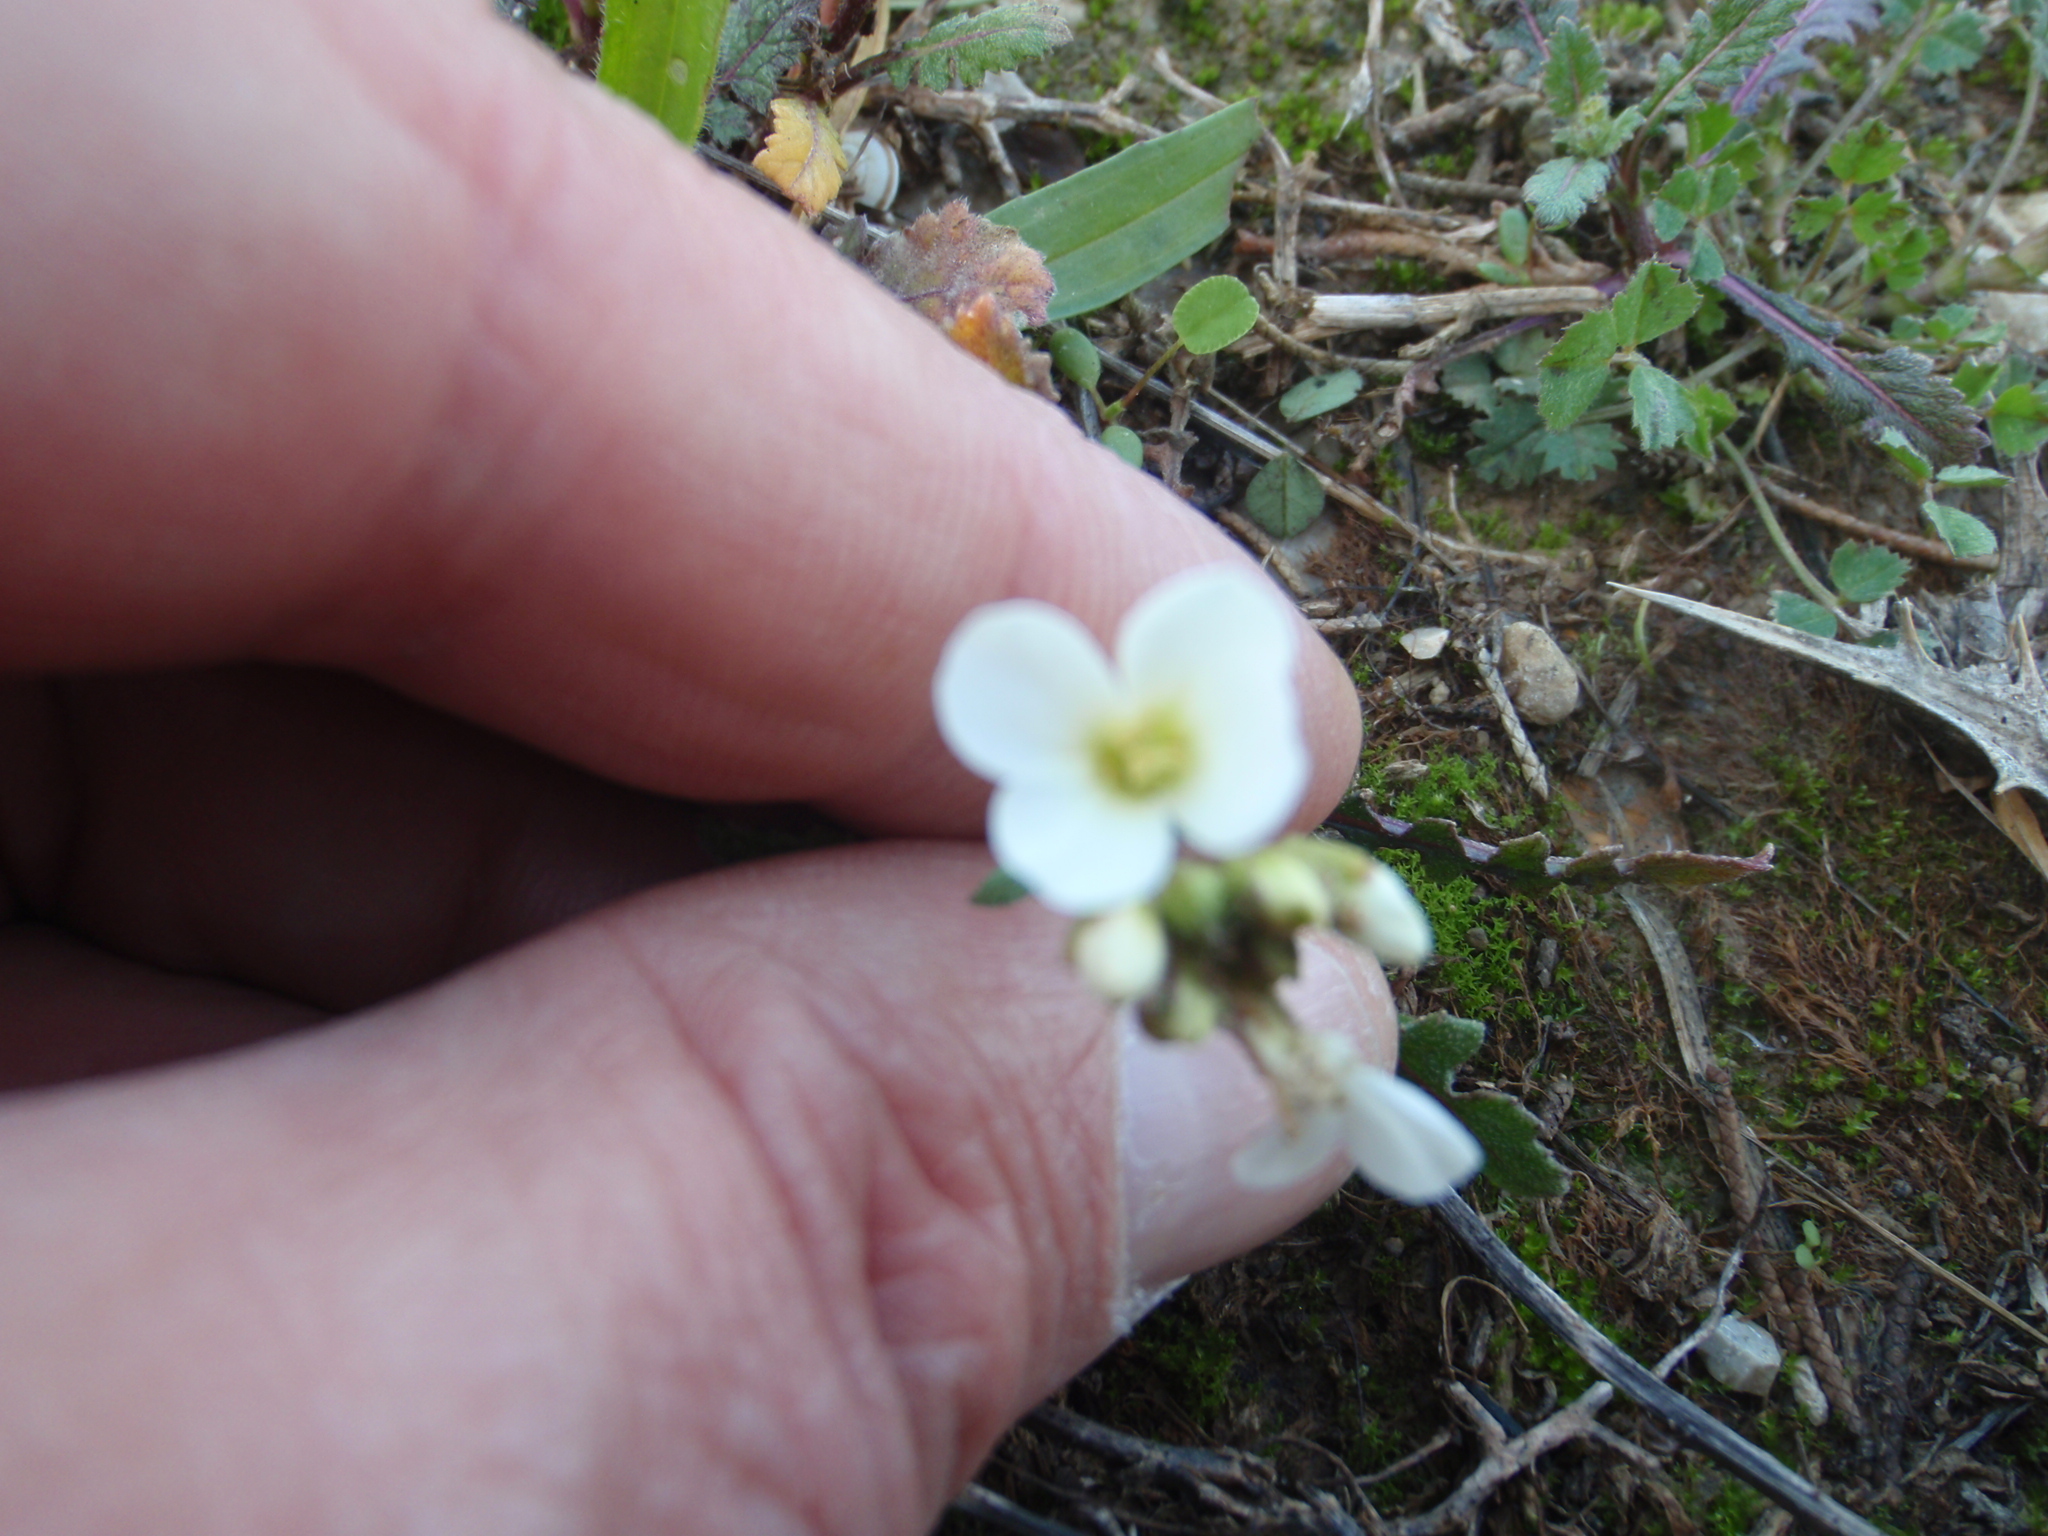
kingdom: Plantae
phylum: Tracheophyta
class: Magnoliopsida
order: Brassicales
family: Brassicaceae
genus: Diplotaxis
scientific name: Diplotaxis erucoides
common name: White rocket
